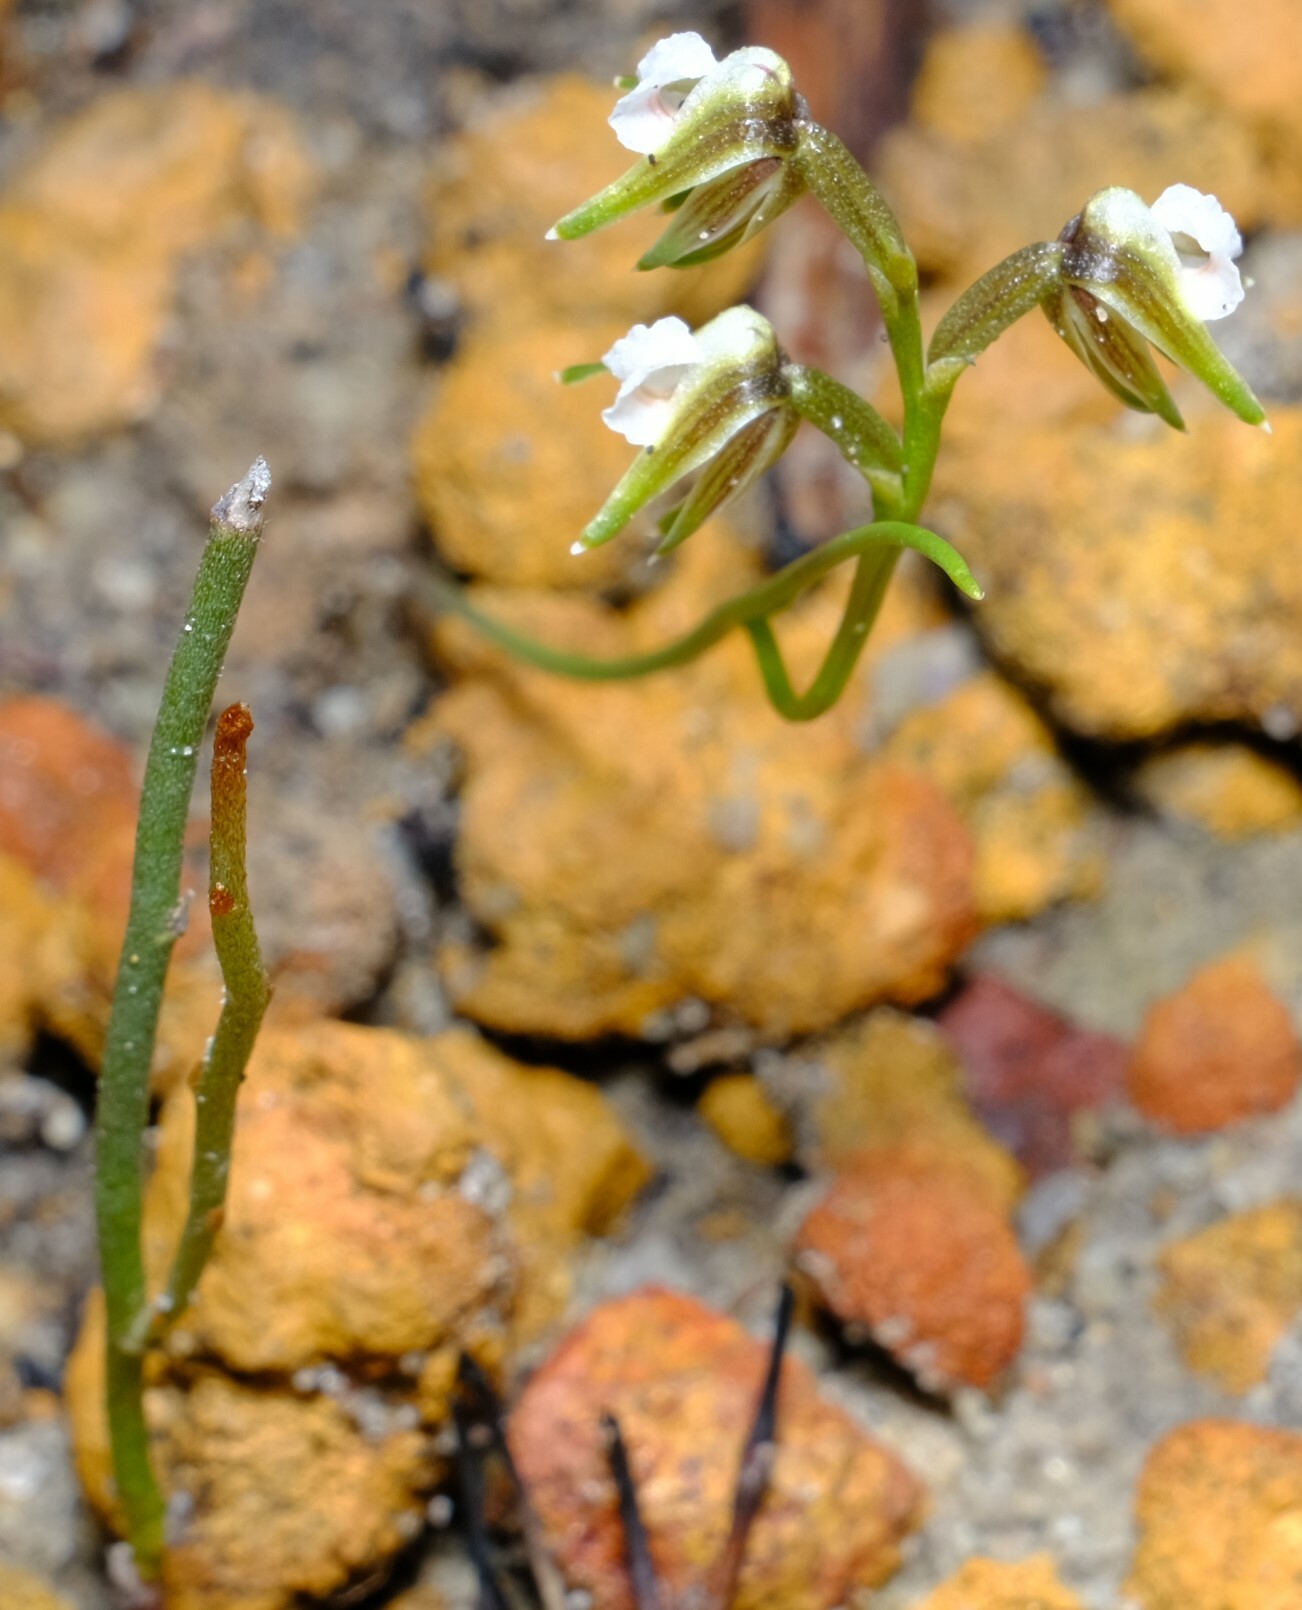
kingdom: Plantae
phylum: Tracheophyta
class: Liliopsida
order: Asparagales
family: Orchidaceae
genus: Prasophyllum
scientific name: Prasophyllum parvifolium
